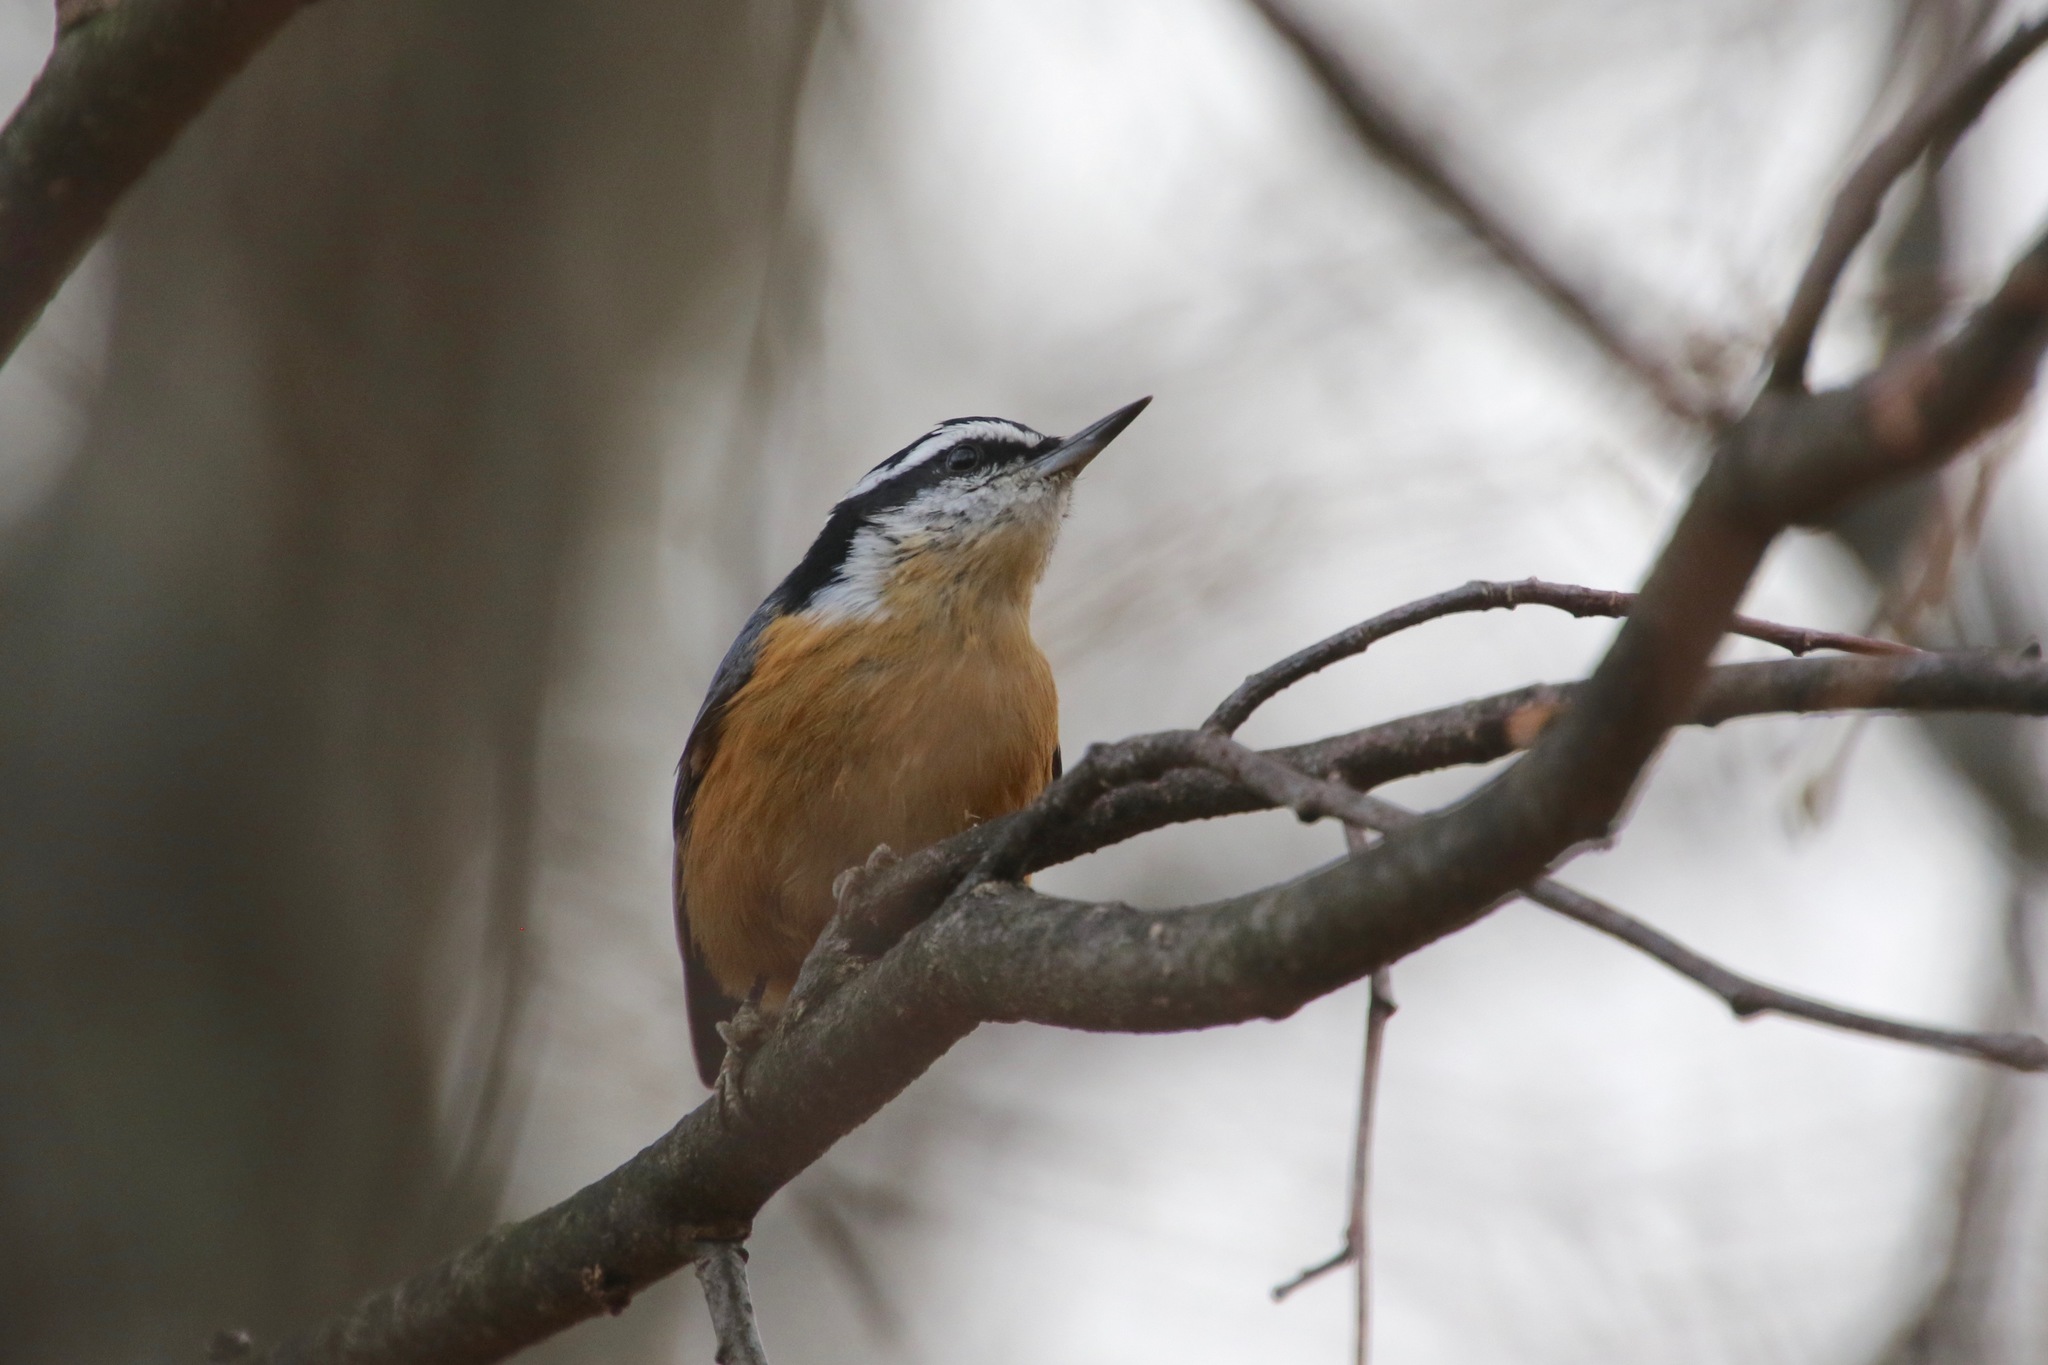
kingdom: Animalia
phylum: Chordata
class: Aves
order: Passeriformes
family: Sittidae
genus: Sitta
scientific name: Sitta canadensis
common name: Red-breasted nuthatch
